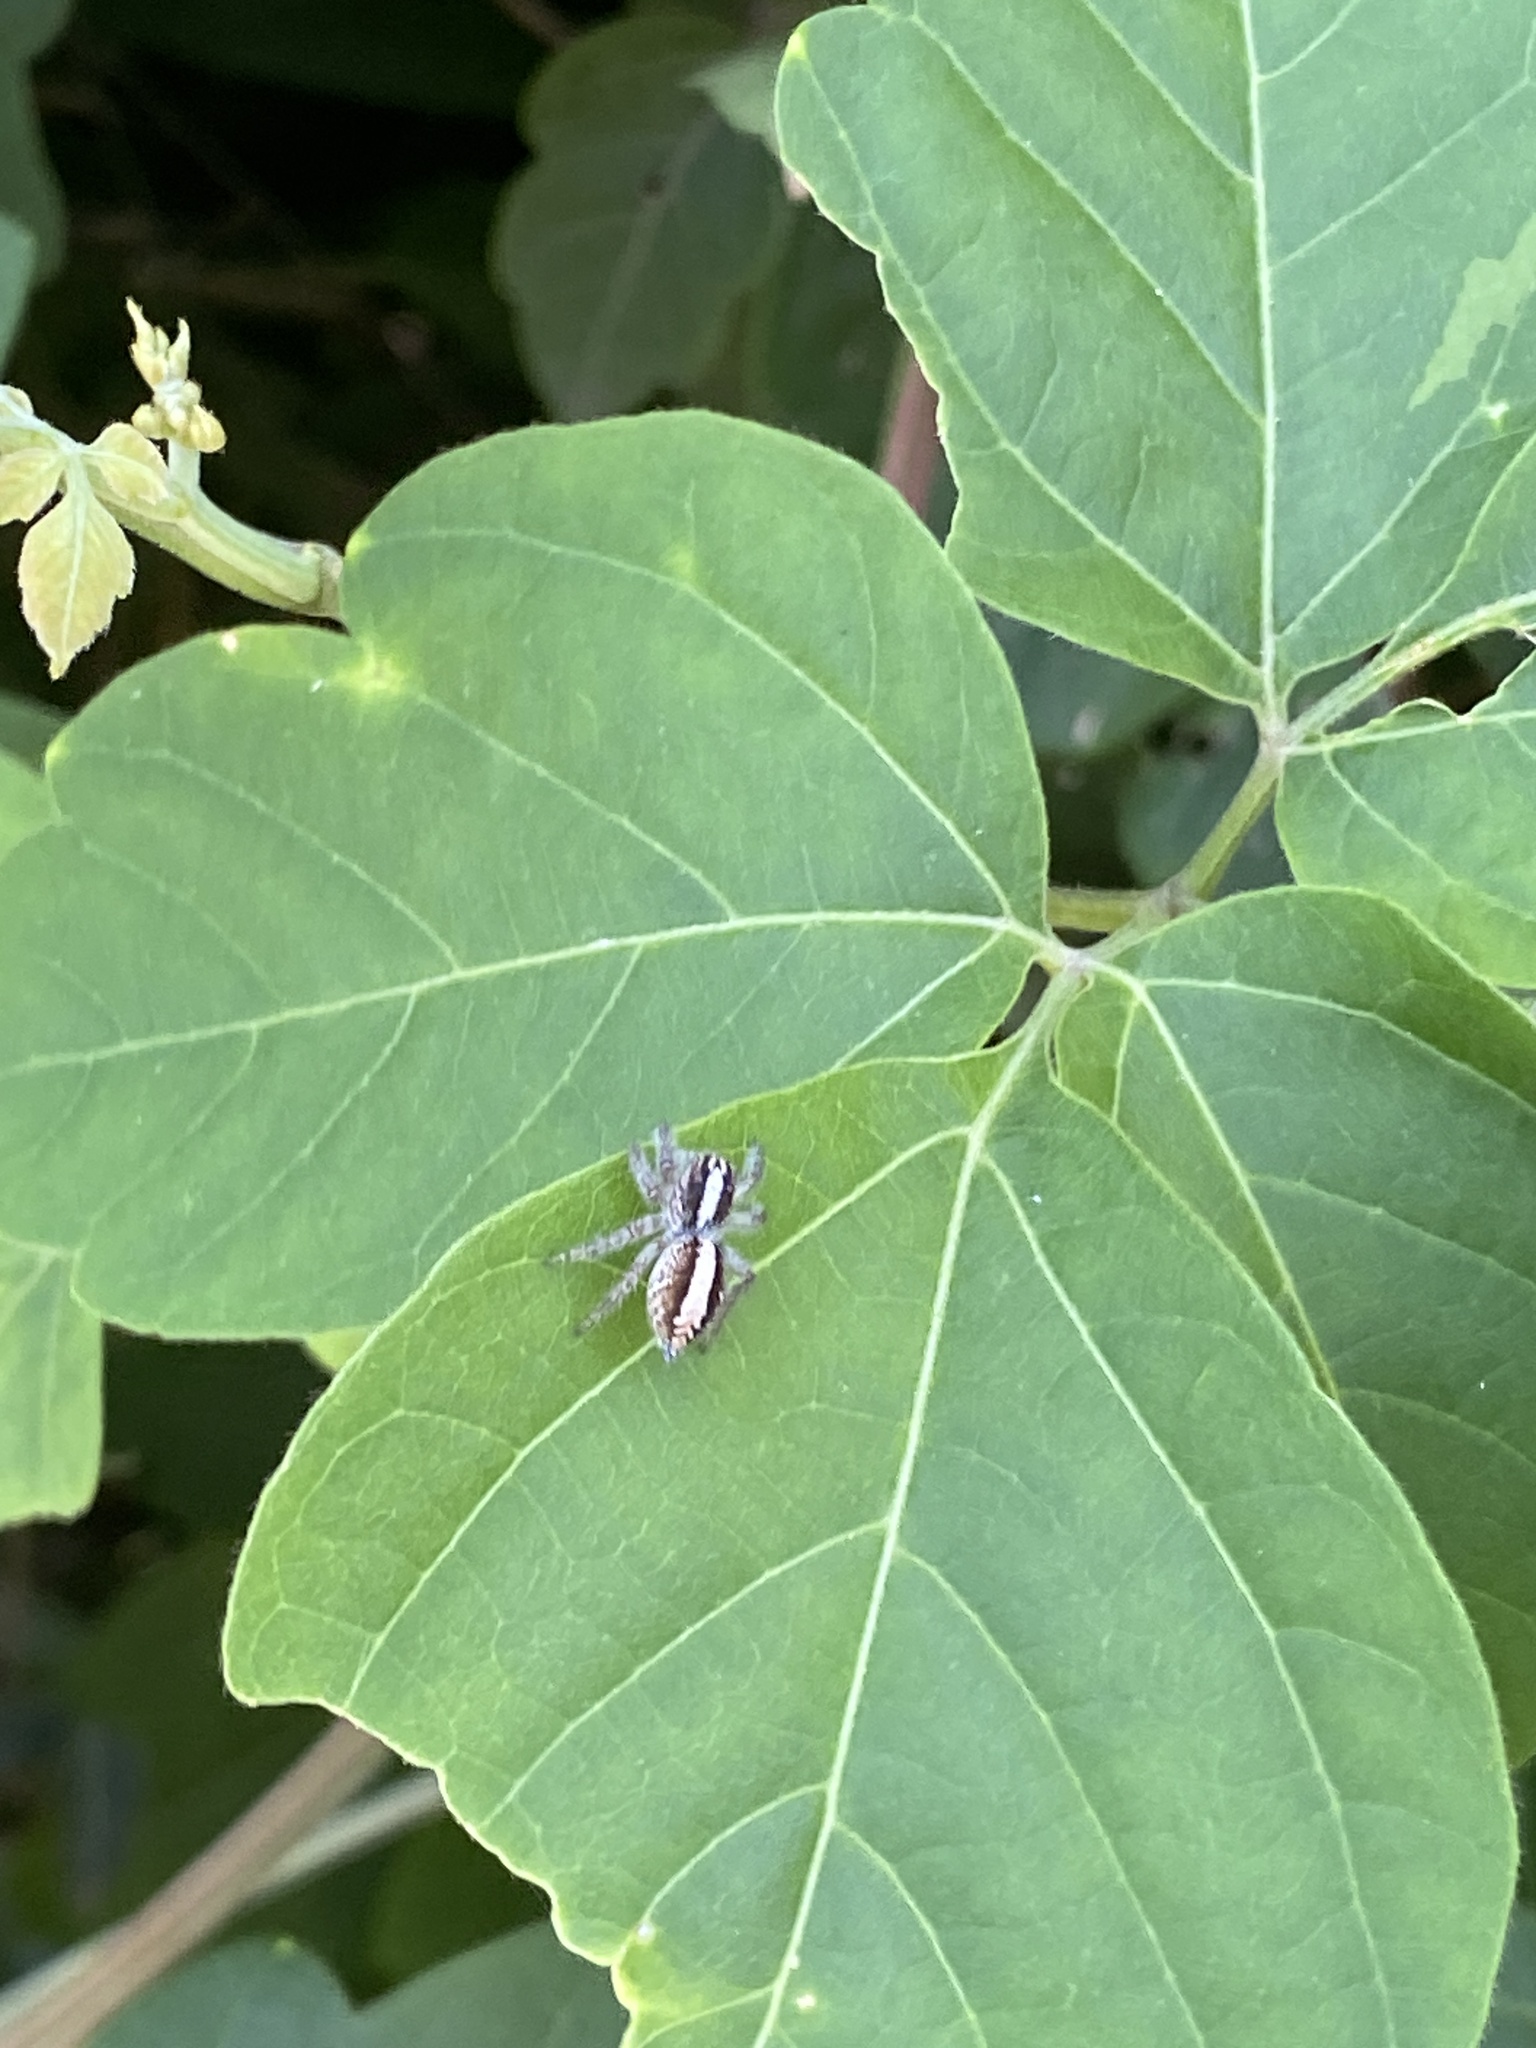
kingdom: Animalia
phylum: Arthropoda
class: Arachnida
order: Araneae
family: Salticidae
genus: Megafreya
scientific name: Megafreya sutrix
